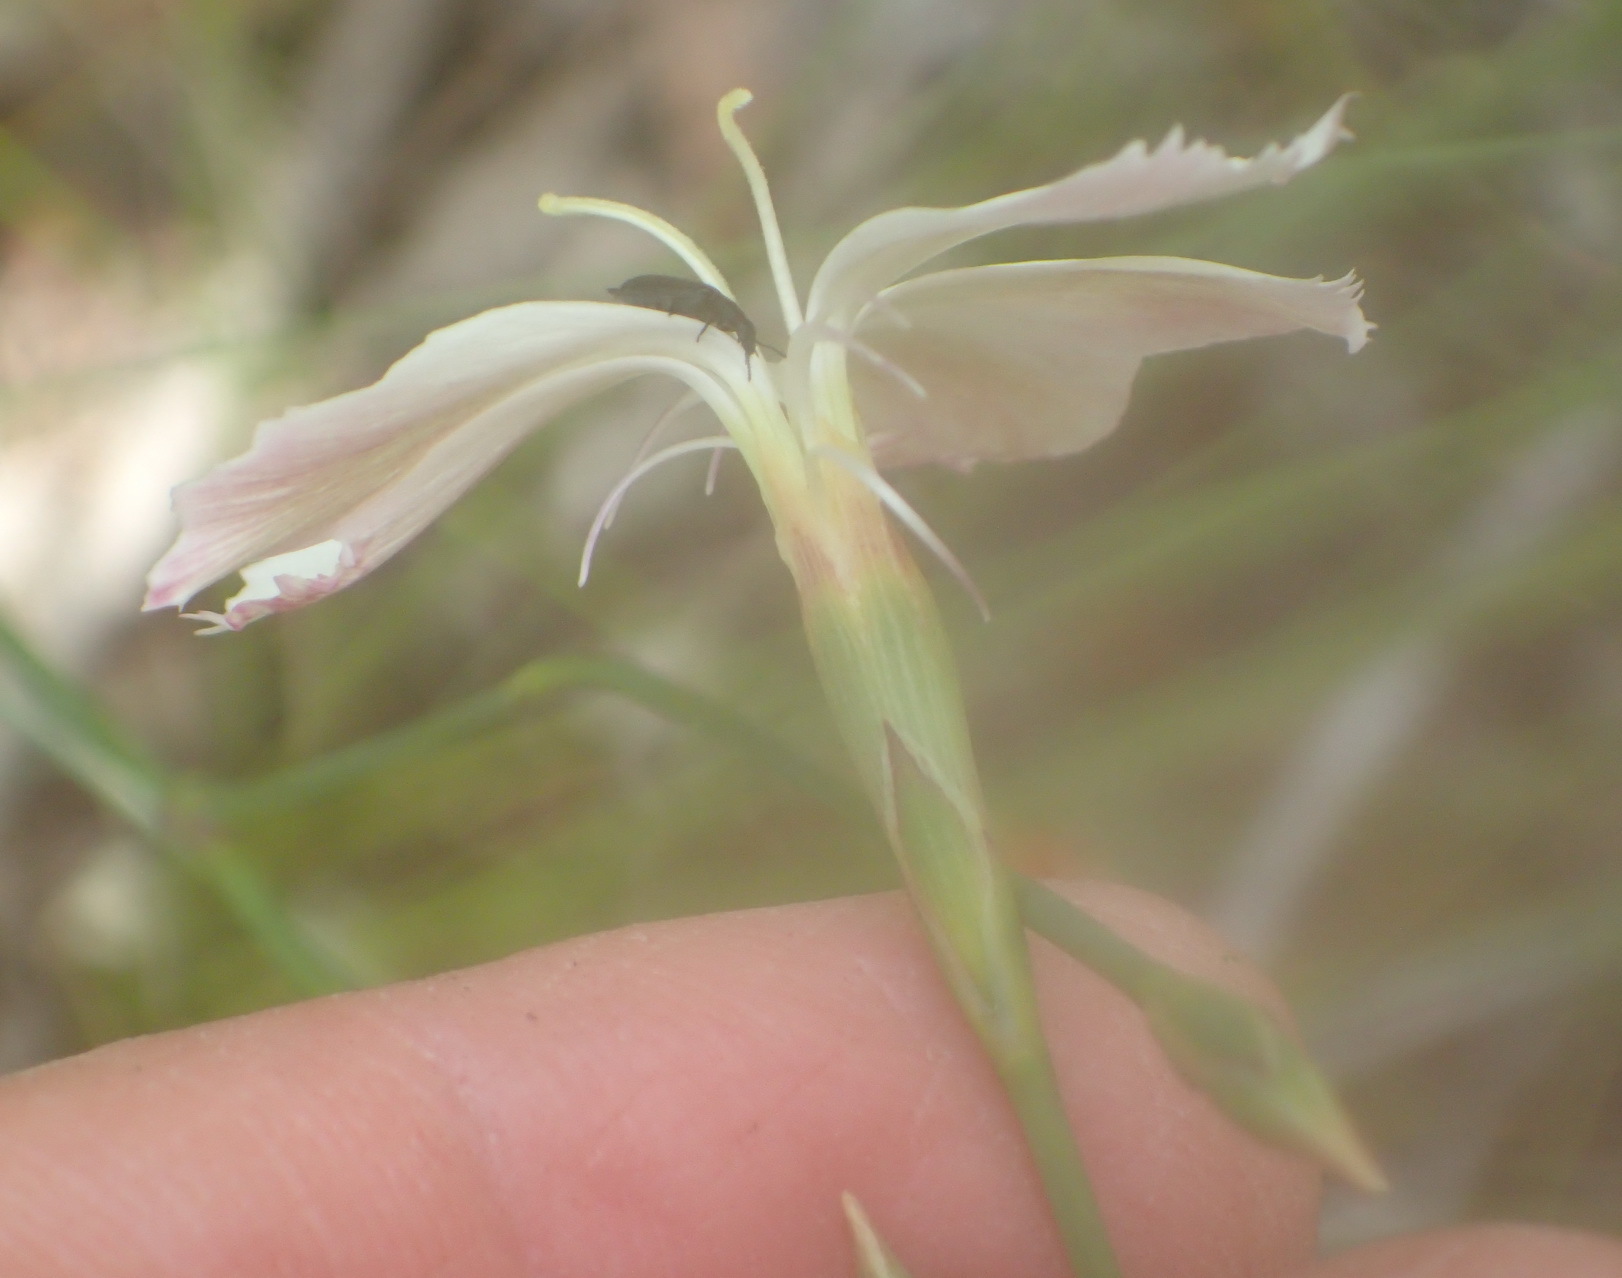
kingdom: Plantae
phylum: Tracheophyta
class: Magnoliopsida
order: Caryophyllales
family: Caryophyllaceae
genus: Dianthus
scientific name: Dianthus albens
